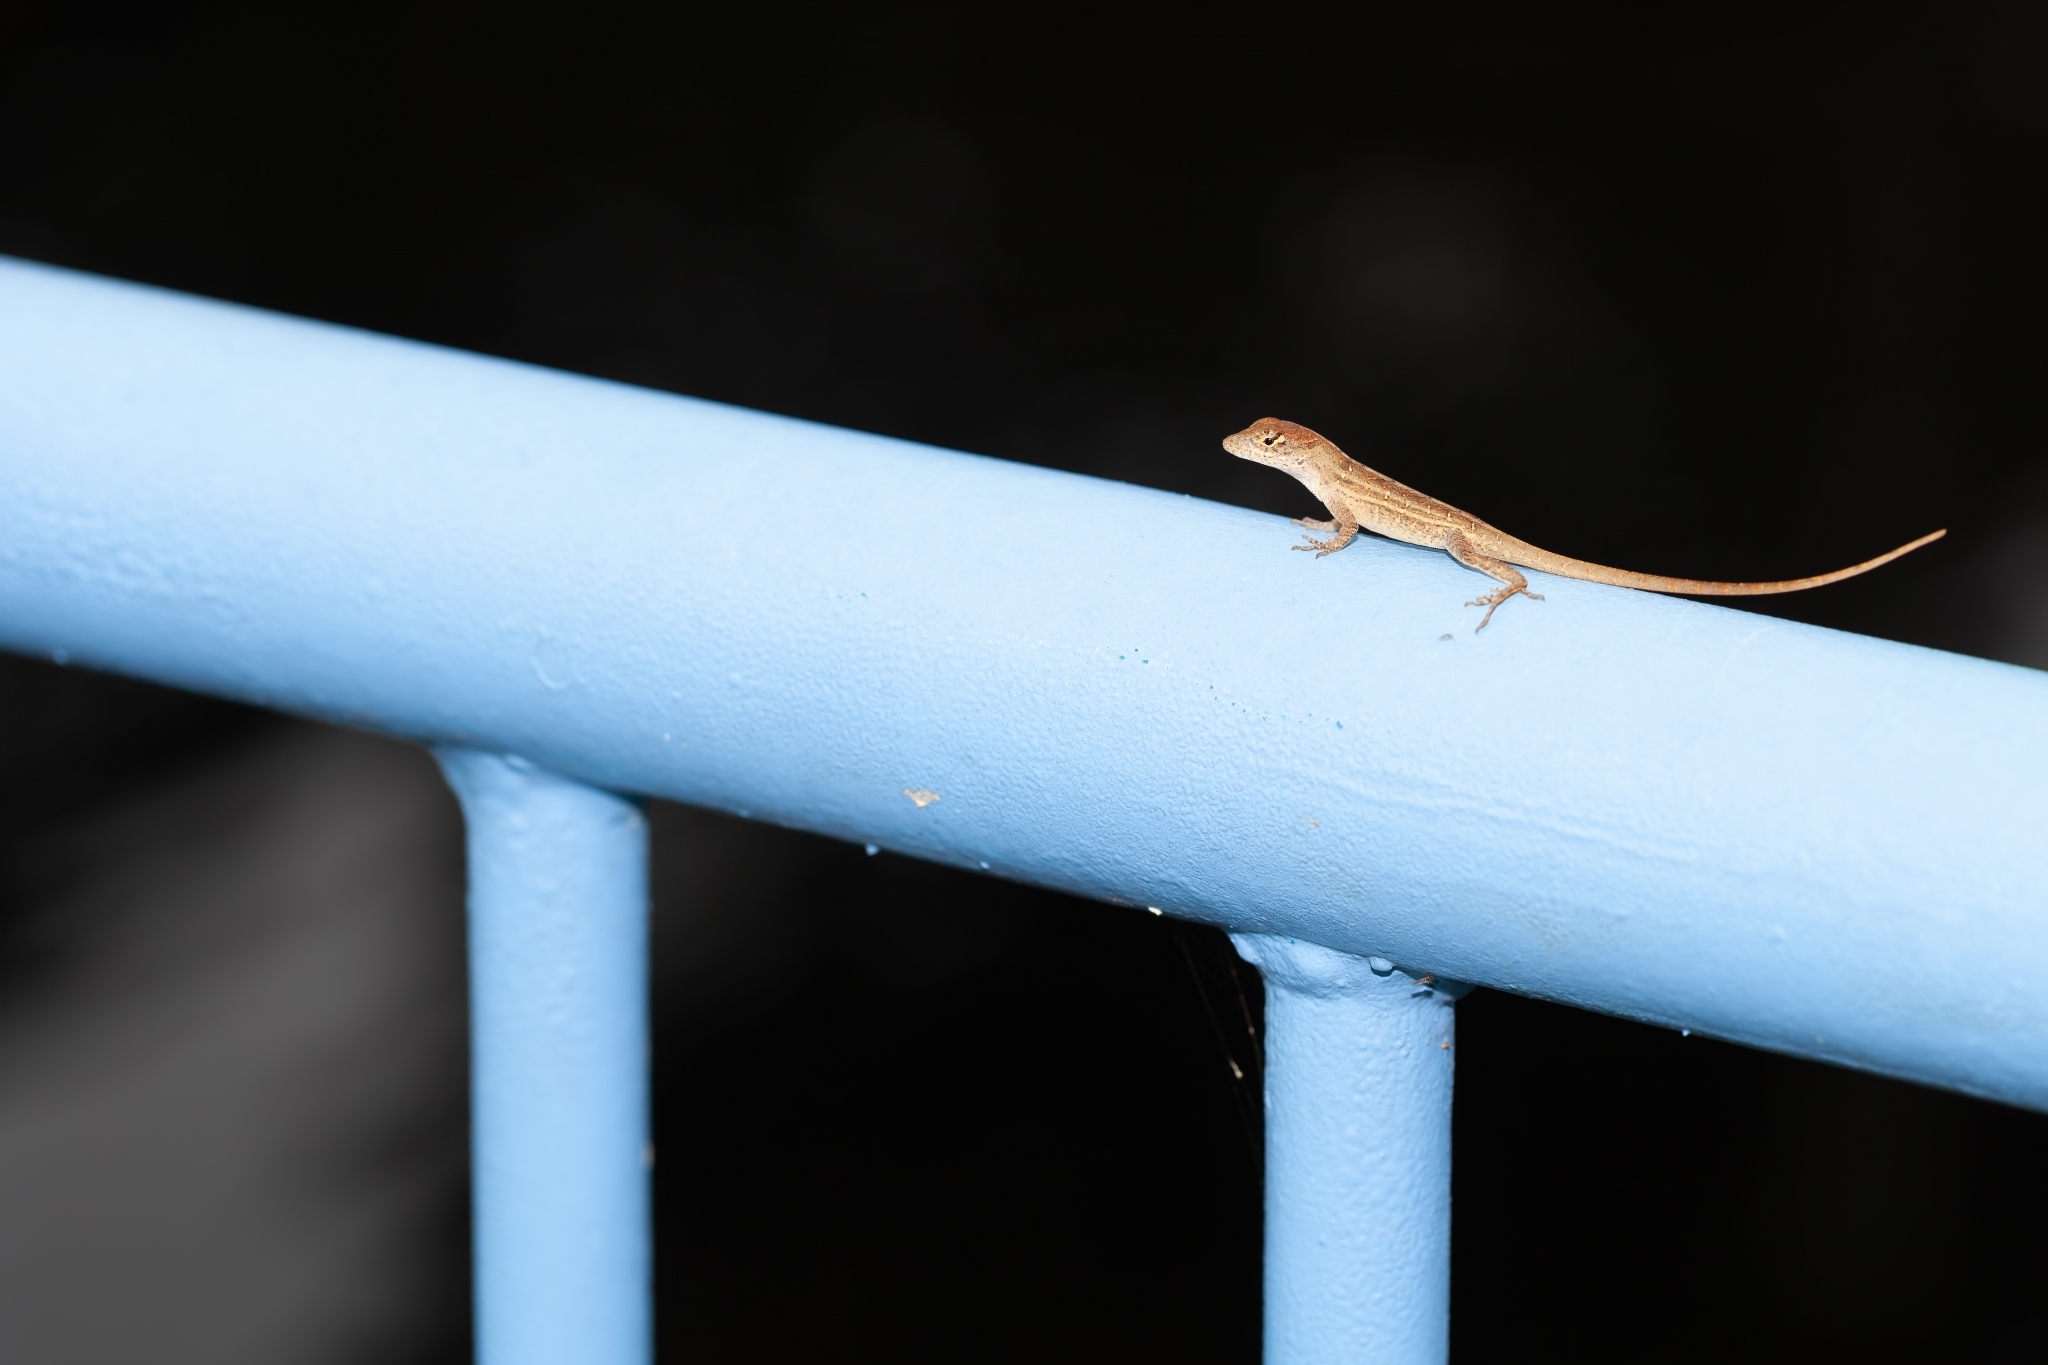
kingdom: Animalia
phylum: Chordata
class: Squamata
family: Dactyloidae
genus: Anolis
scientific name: Anolis sagrei
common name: Brown anole
